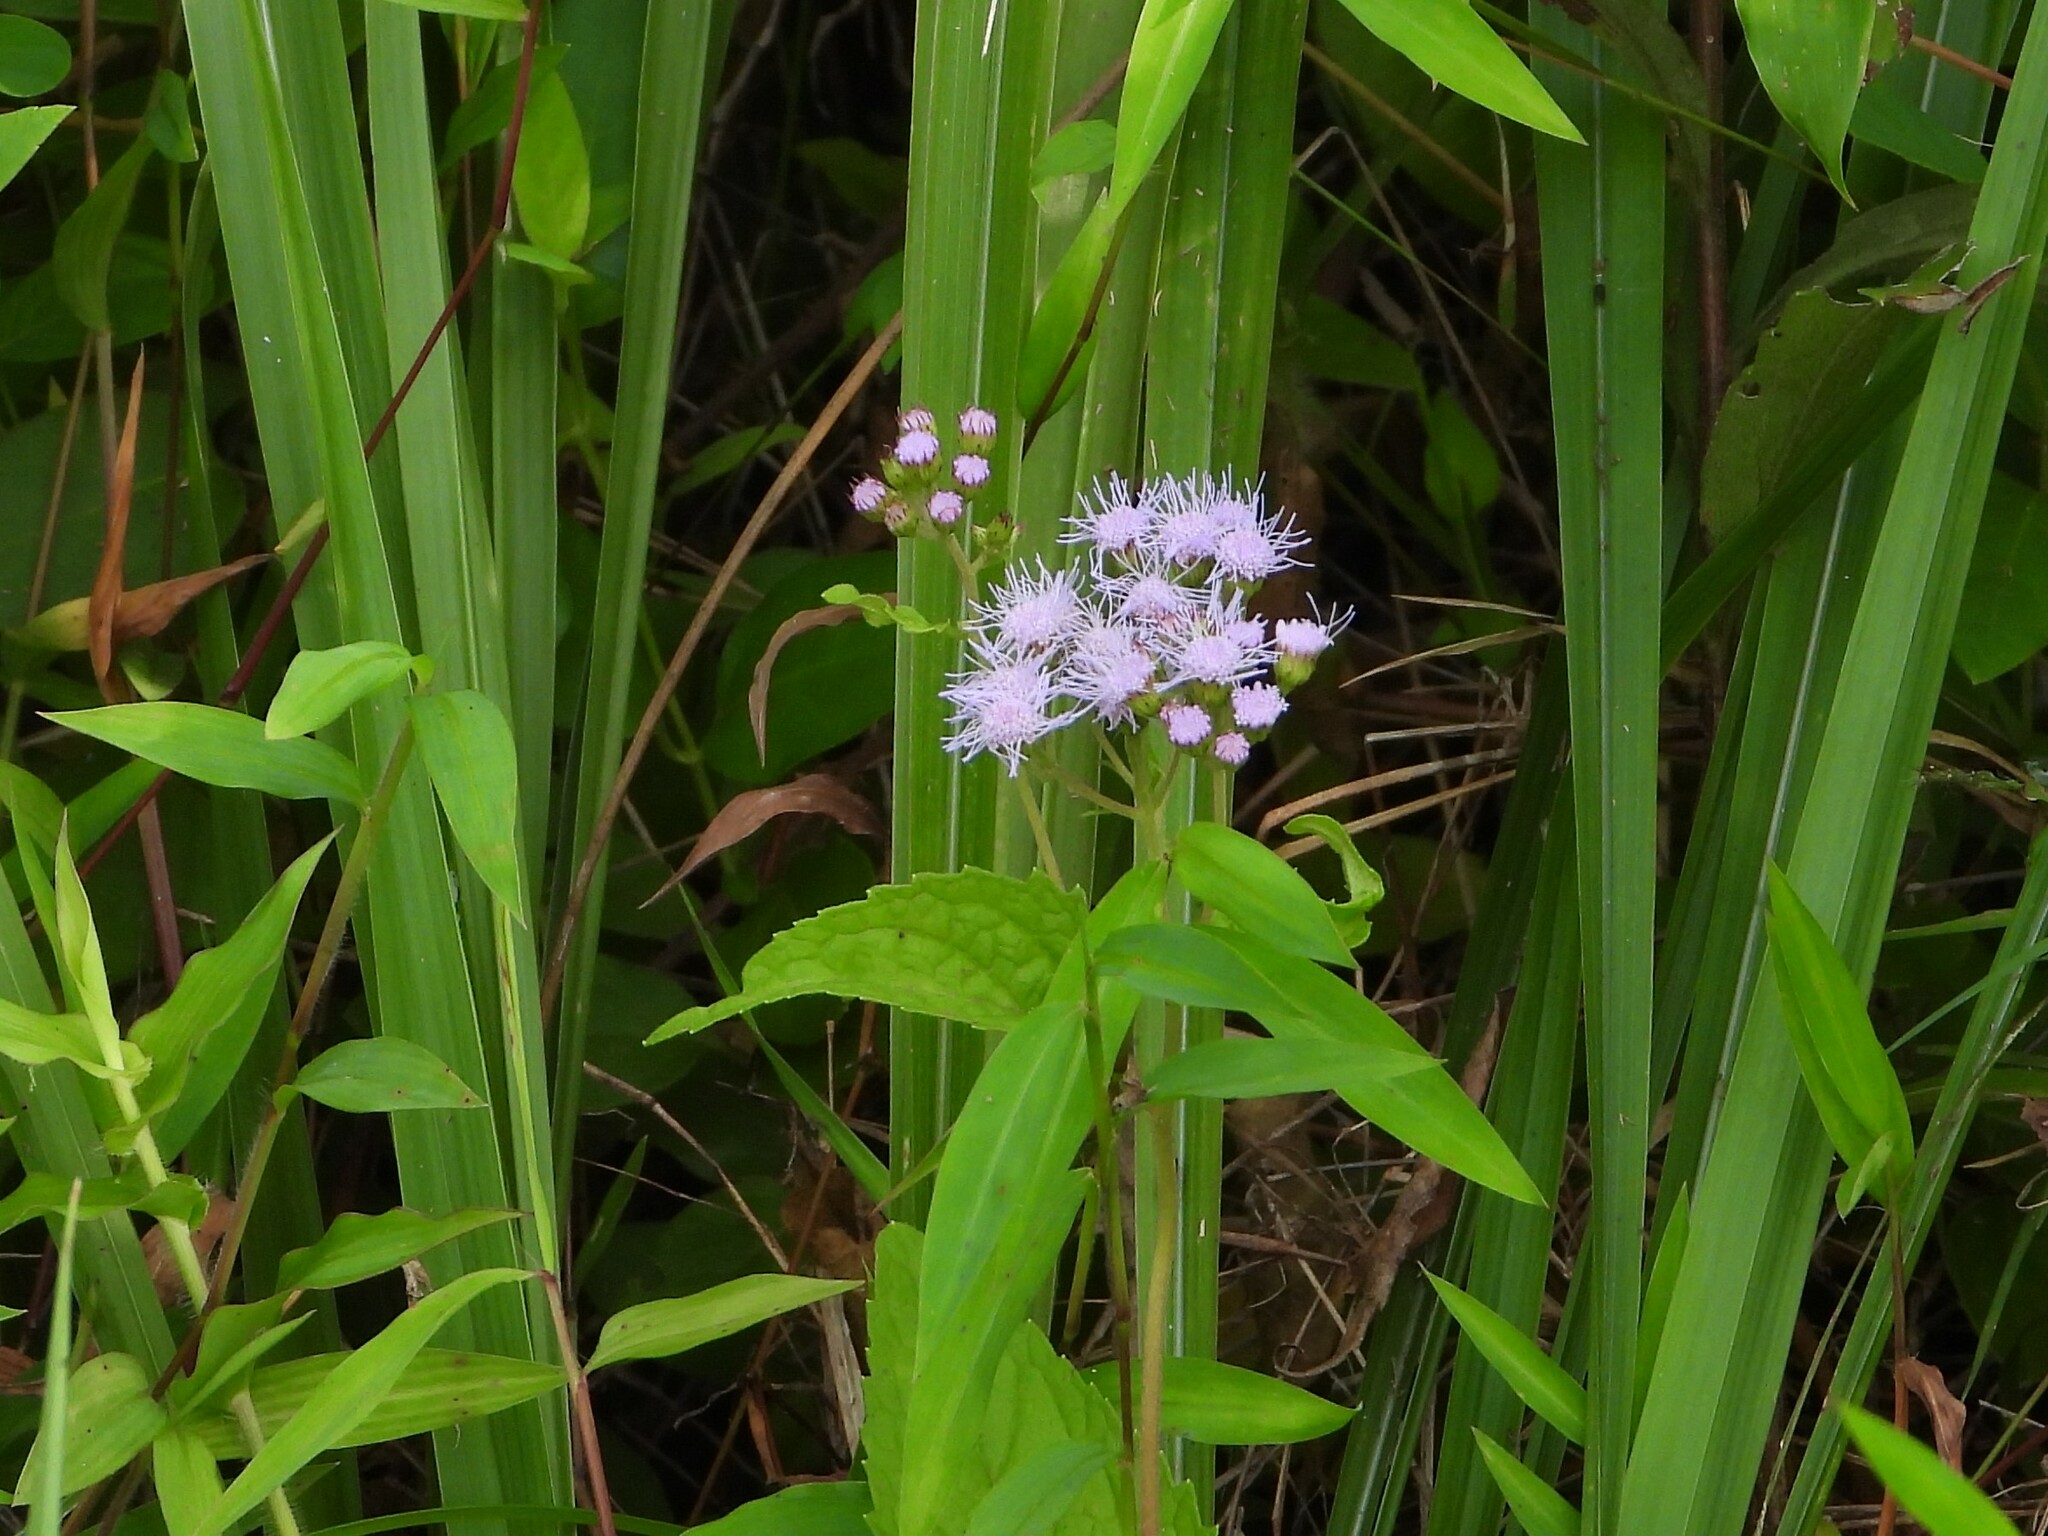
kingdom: Plantae
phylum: Tracheophyta
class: Magnoliopsida
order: Asterales
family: Asteraceae
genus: Conoclinium
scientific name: Conoclinium coelestinum
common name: Blue mistflower
